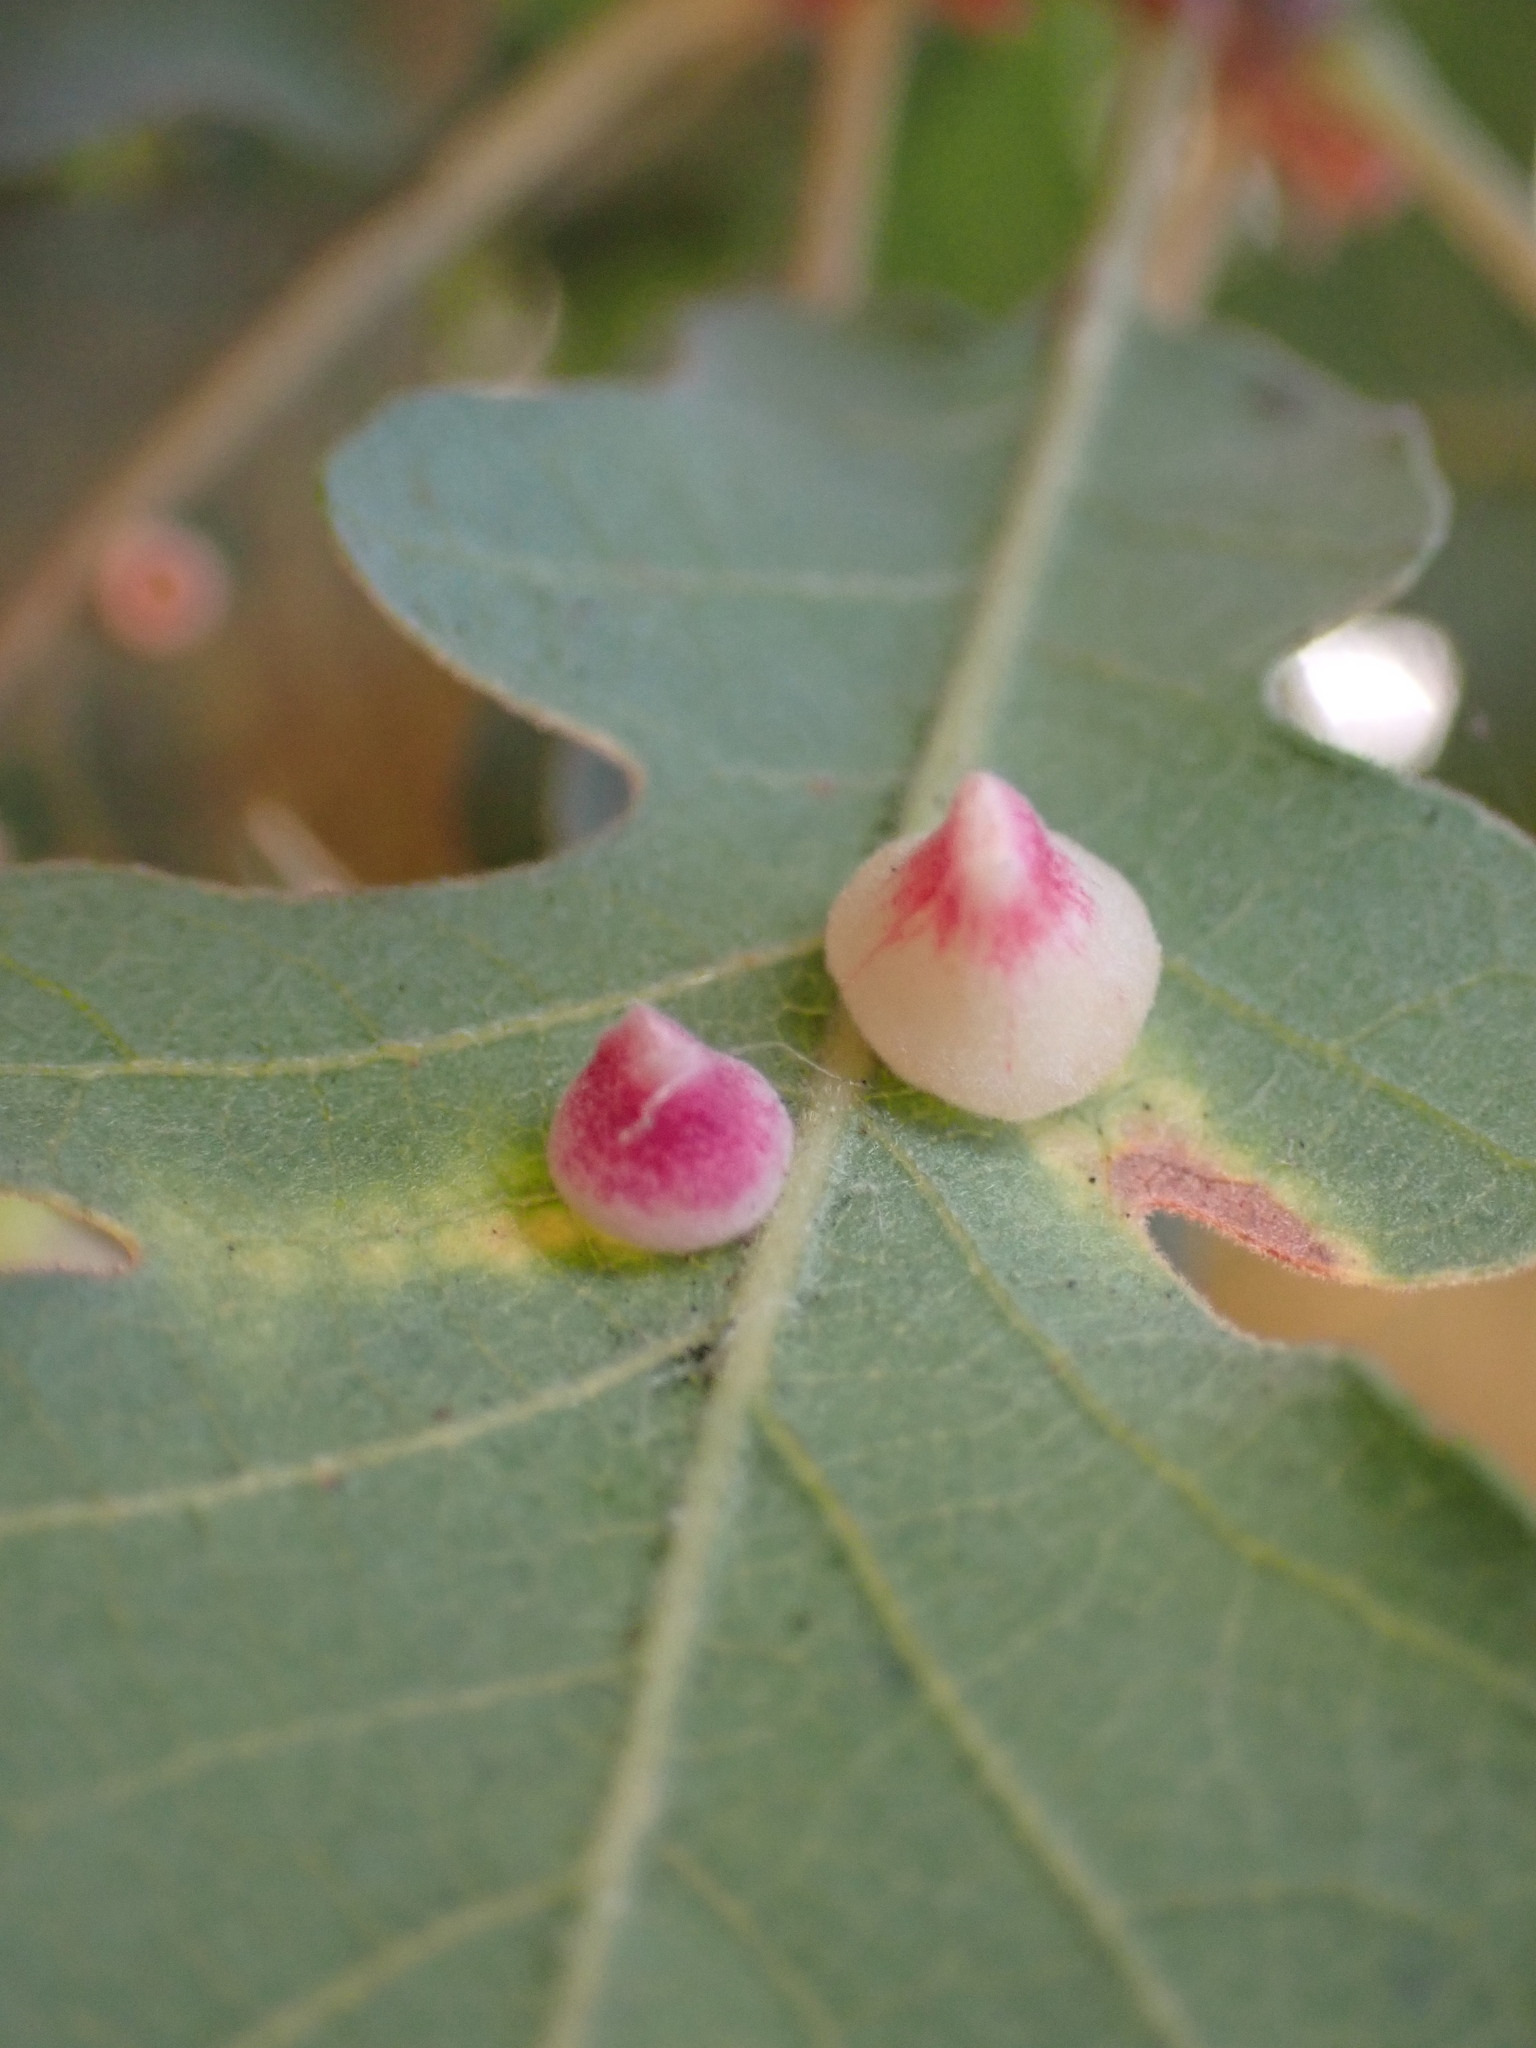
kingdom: Animalia
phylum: Arthropoda
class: Insecta
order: Hymenoptera
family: Cynipidae
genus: Andricus
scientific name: Andricus
